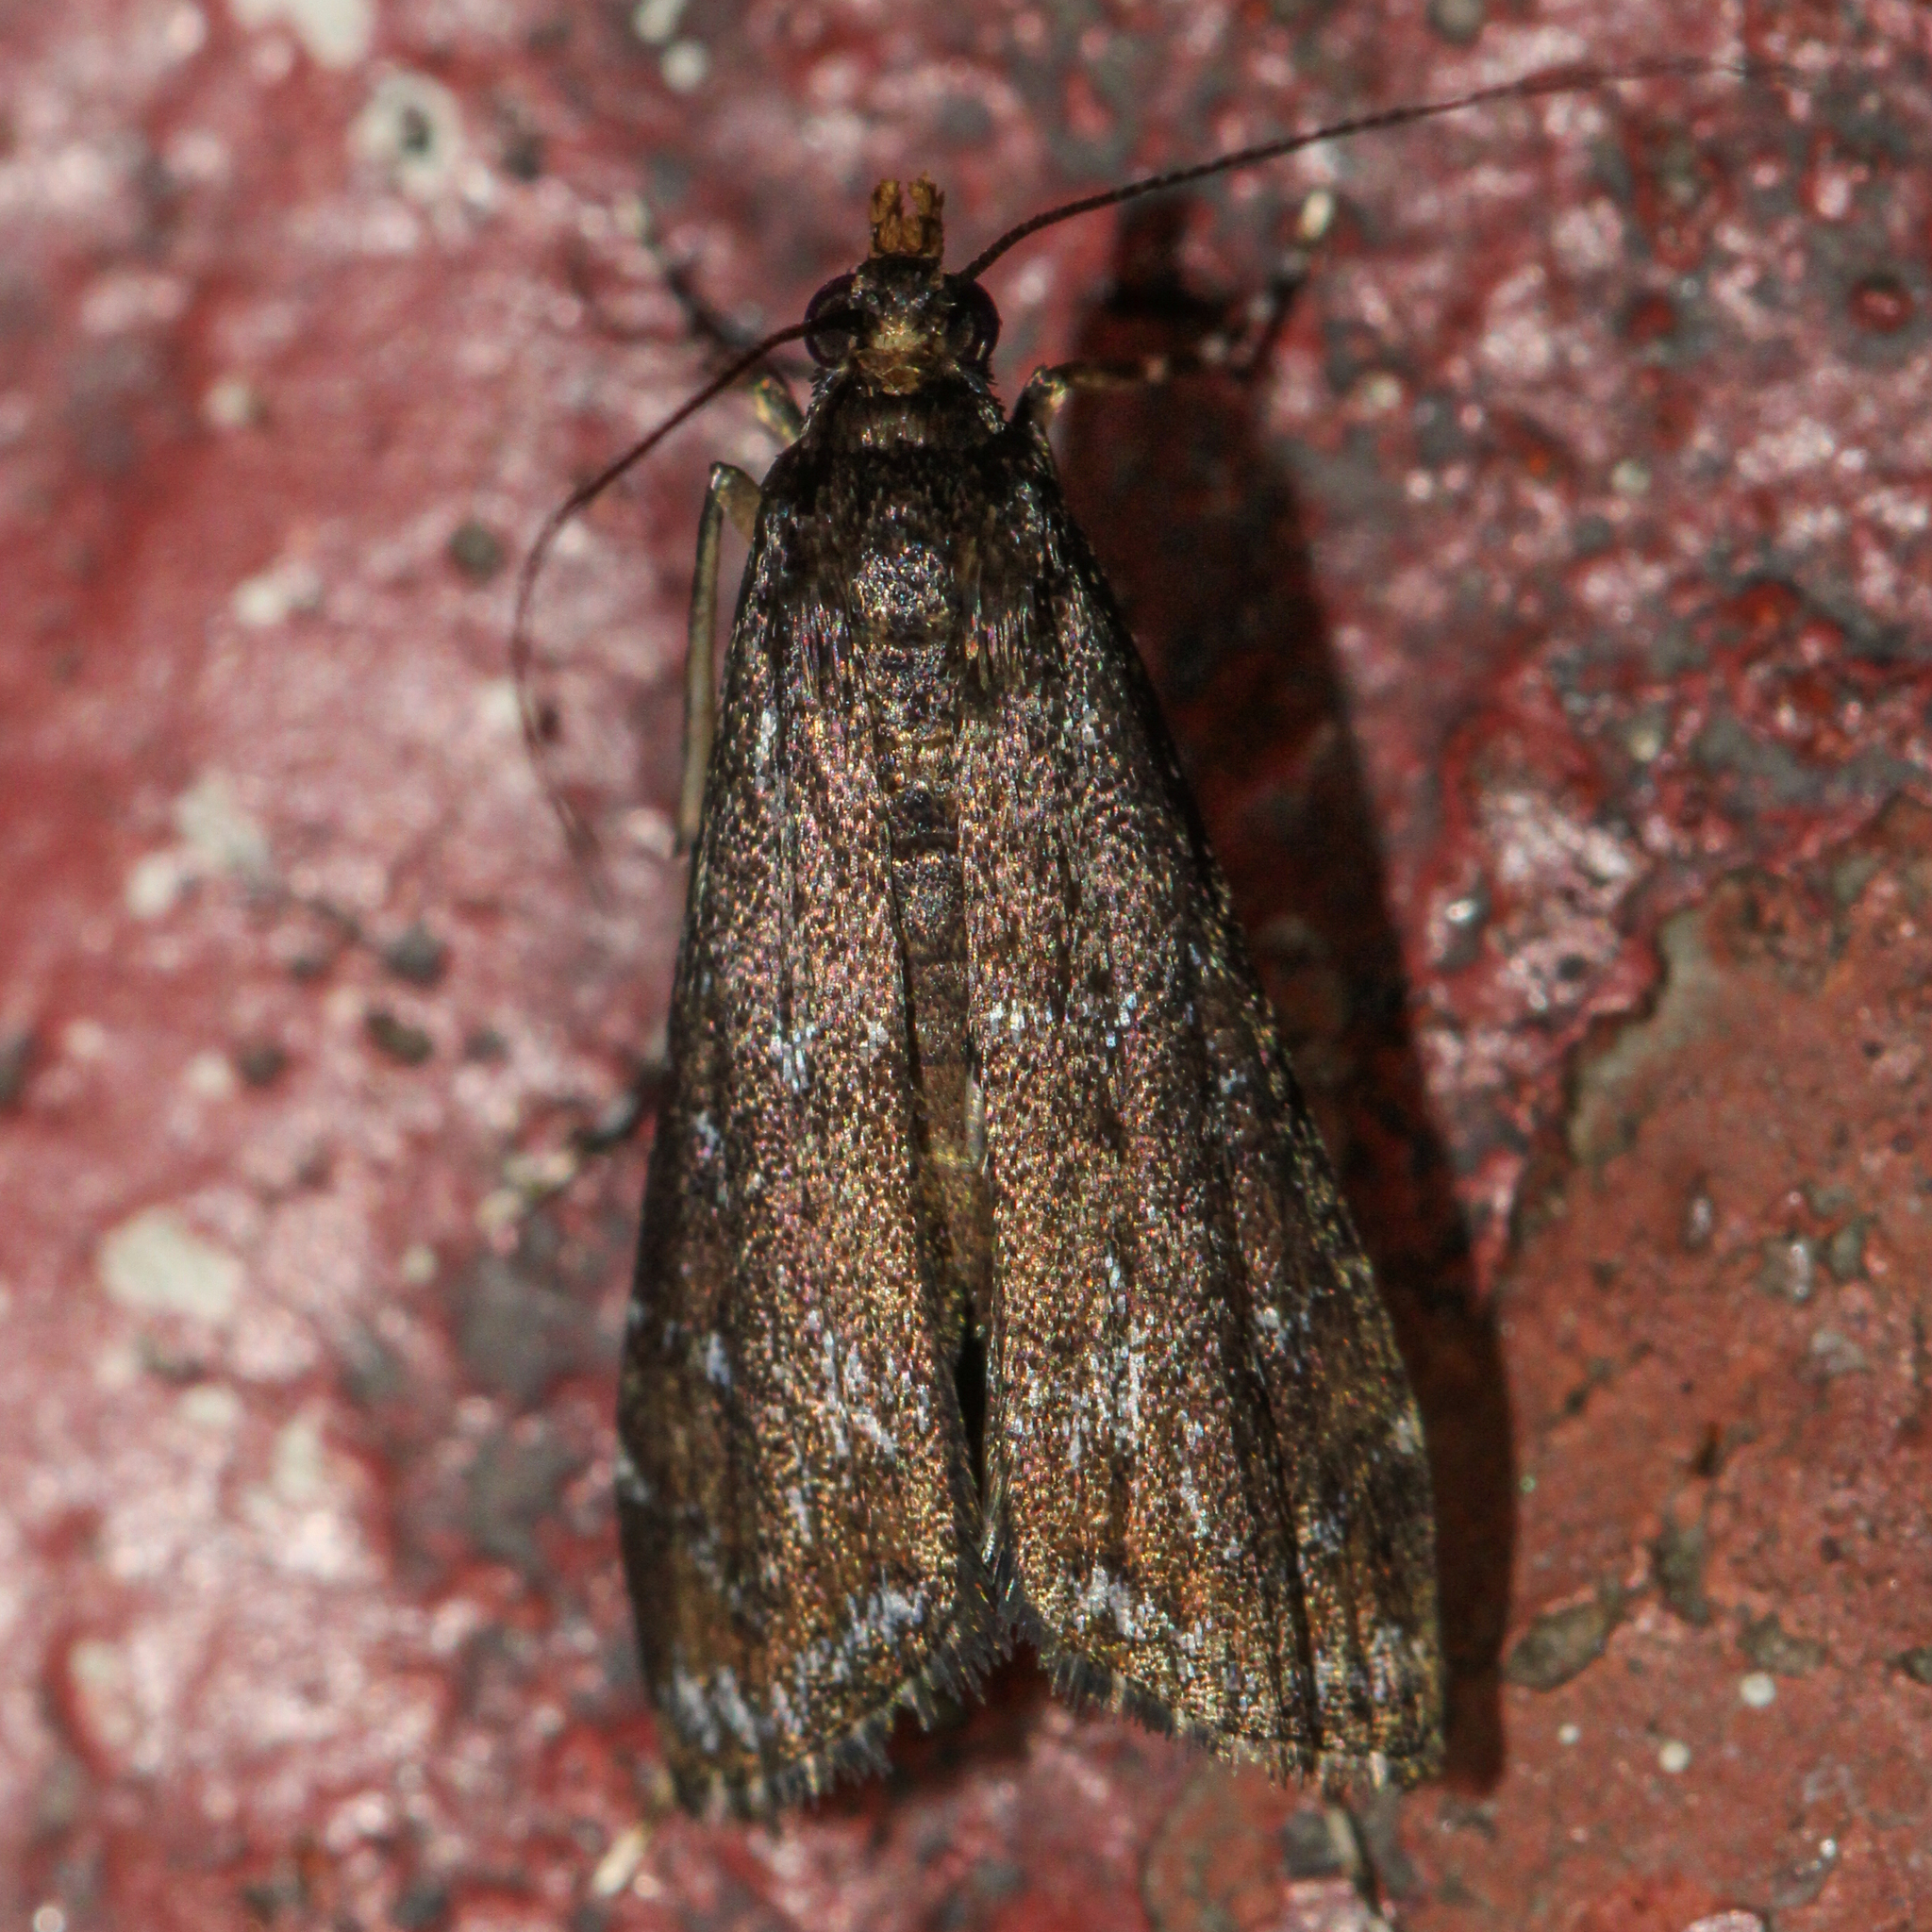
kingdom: Animalia
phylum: Arthropoda
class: Insecta
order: Lepidoptera
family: Crambidae
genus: Langessa
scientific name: Langessa nomophilalis
